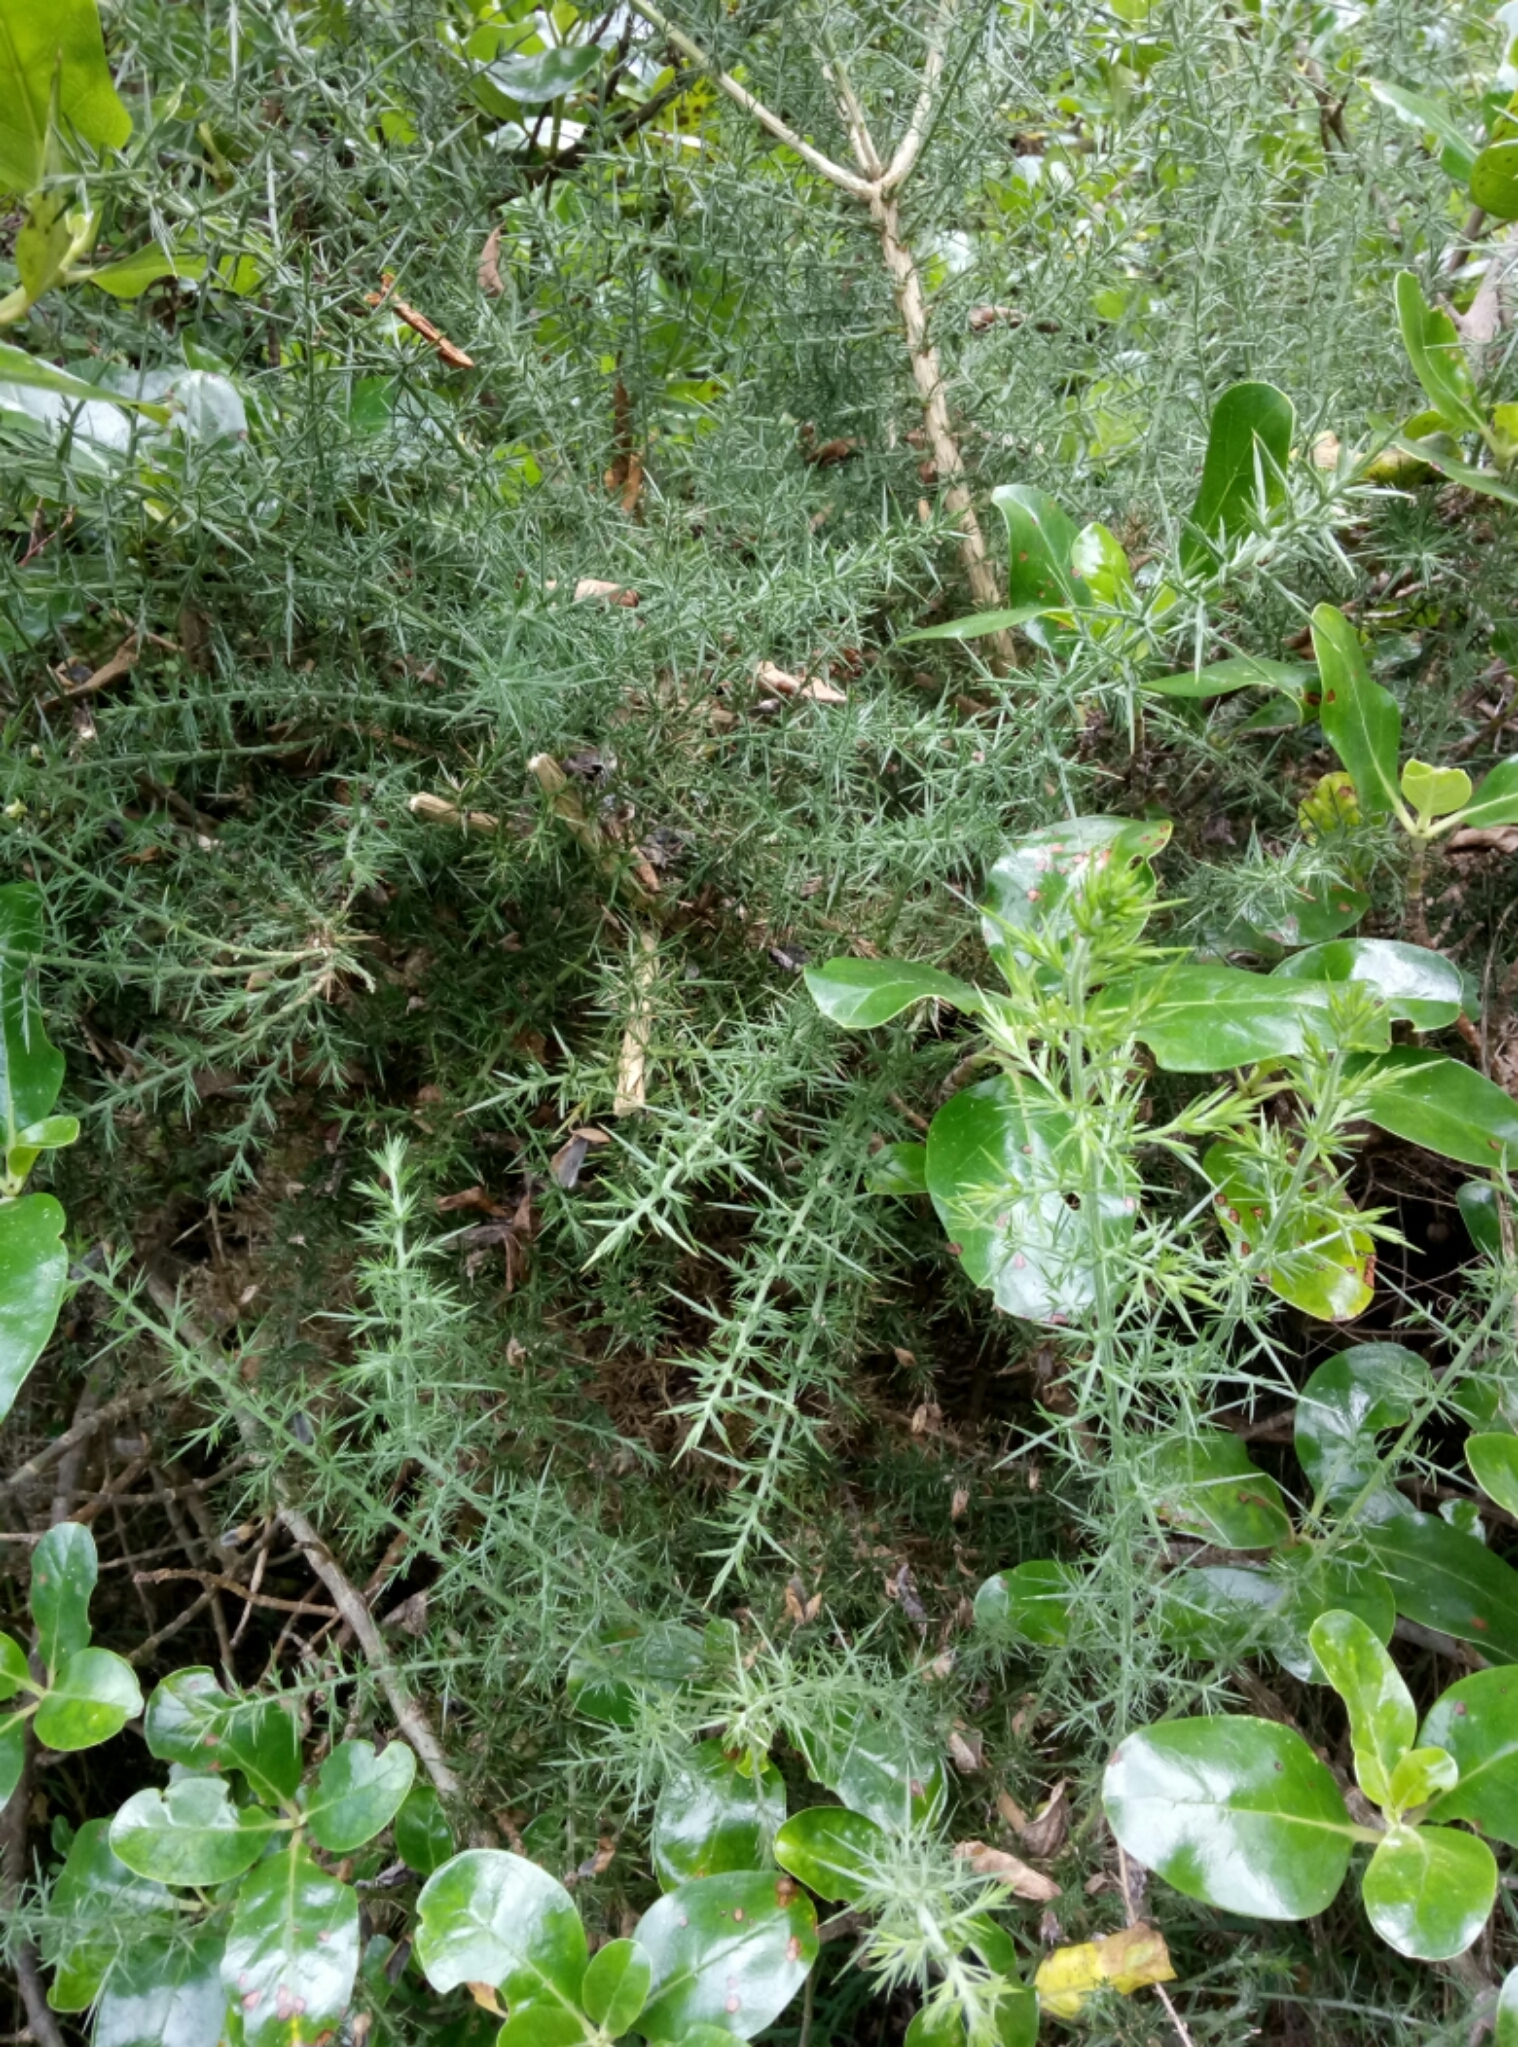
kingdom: Plantae
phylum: Tracheophyta
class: Magnoliopsida
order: Fabales
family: Fabaceae
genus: Ulex
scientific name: Ulex europaeus
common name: Common gorse
